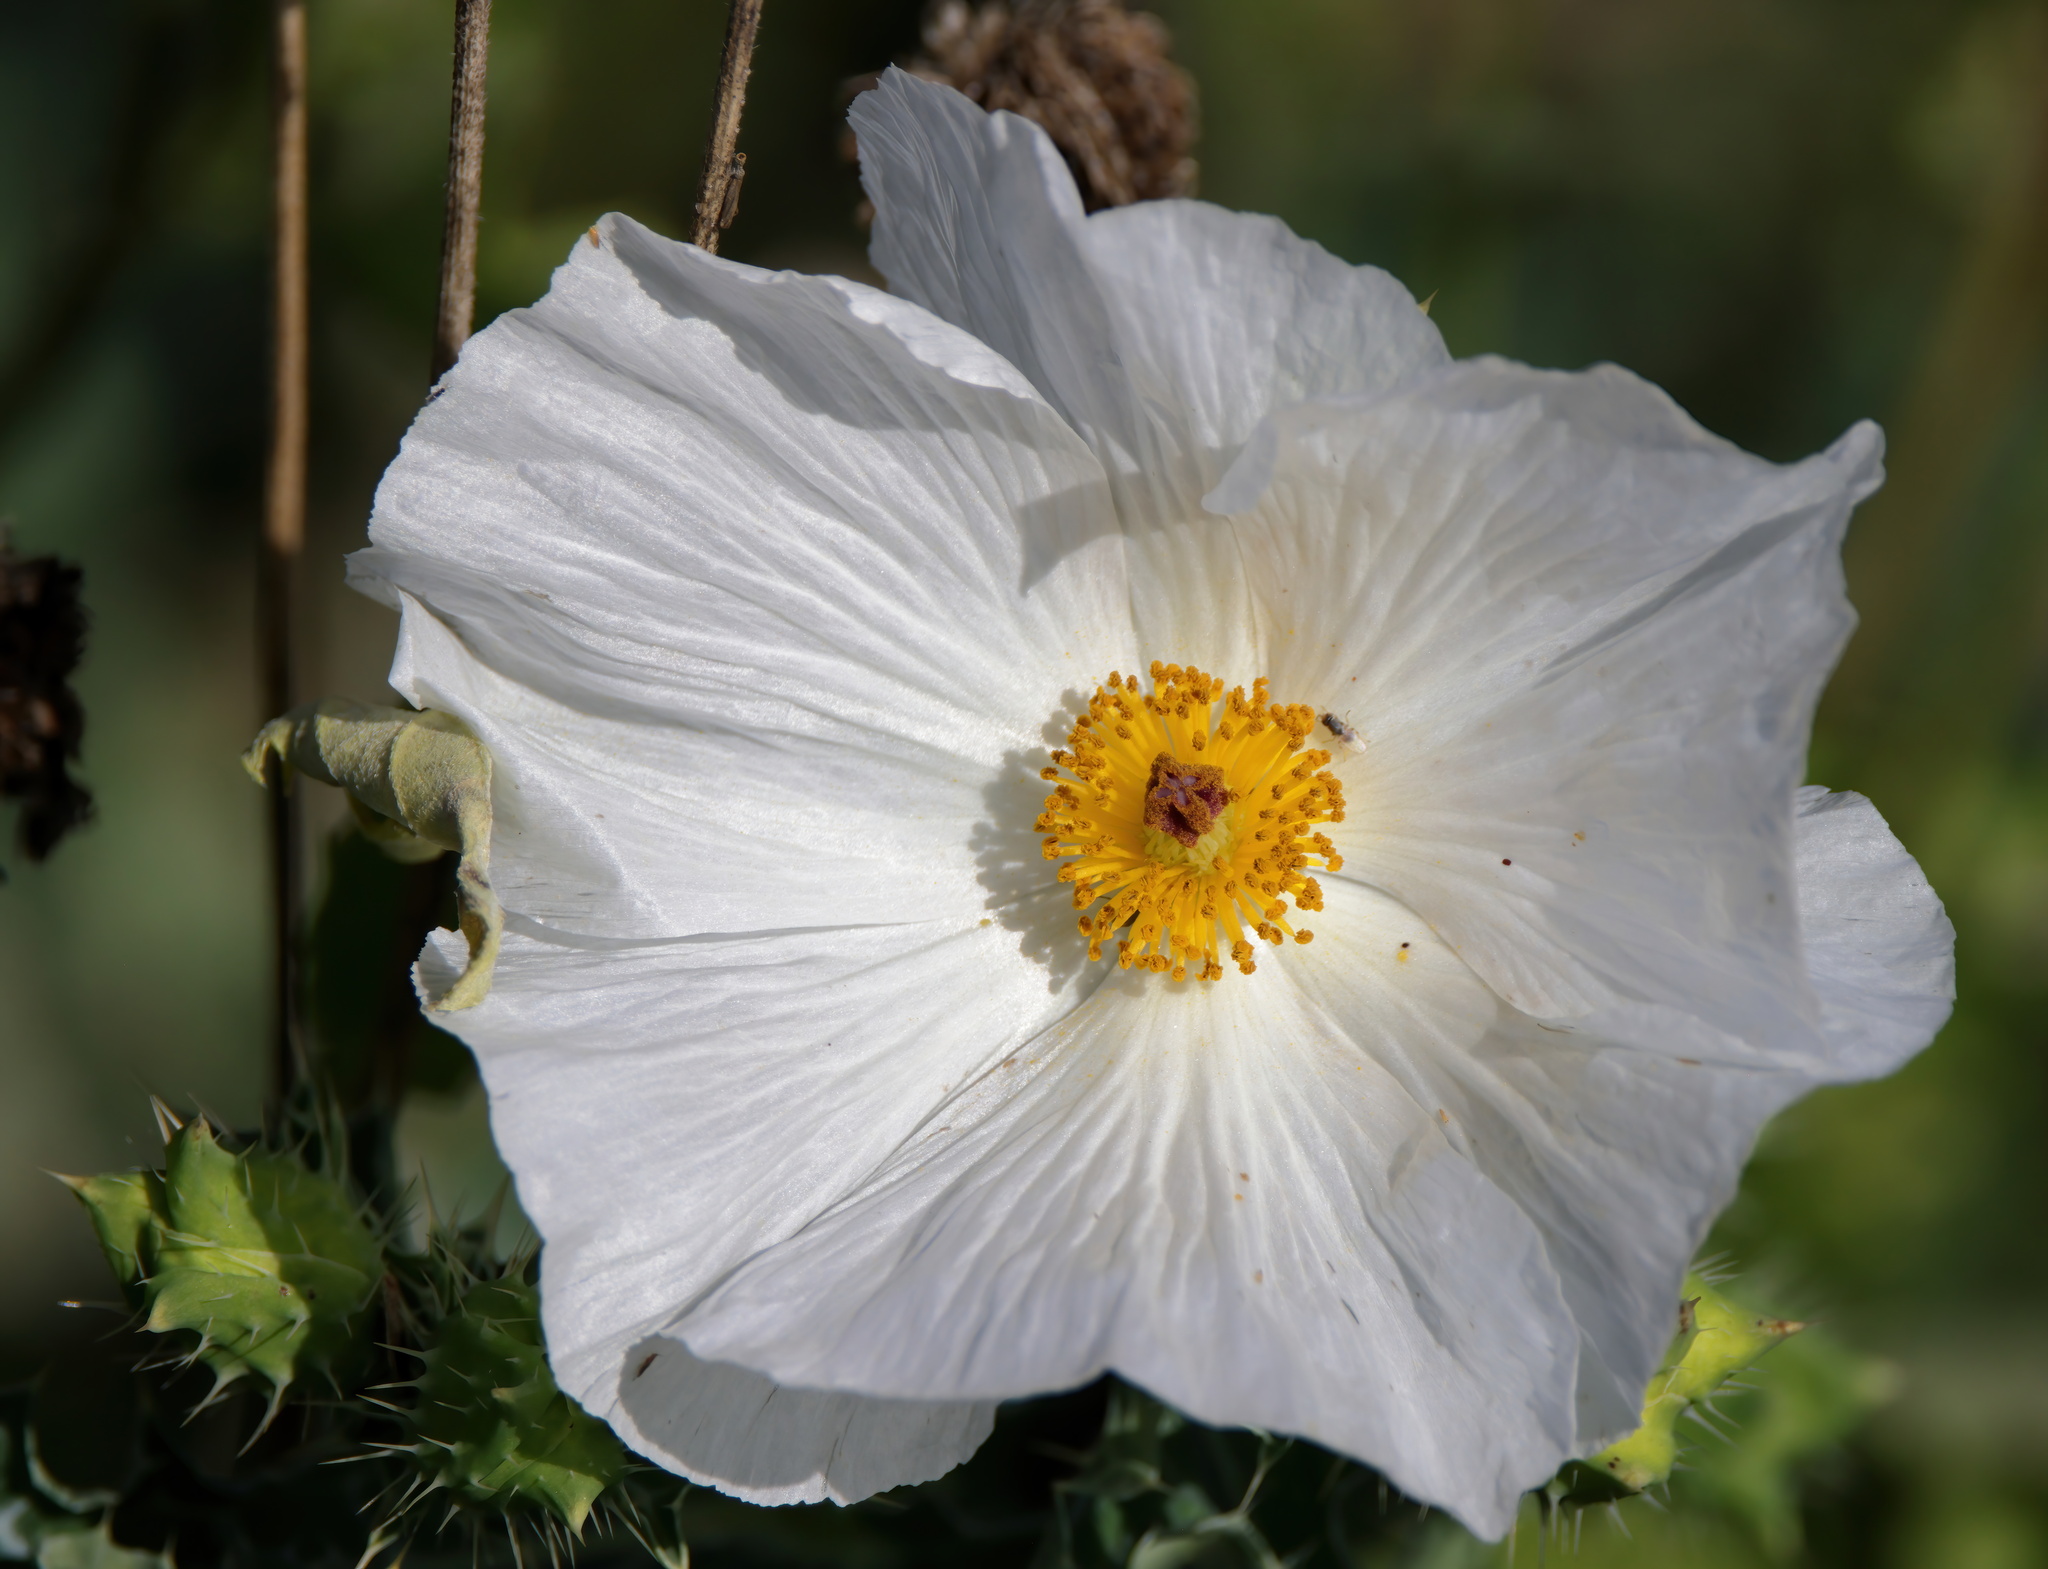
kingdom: Plantae
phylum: Tracheophyta
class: Magnoliopsida
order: Ranunculales
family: Papaveraceae
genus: Argemone
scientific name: Argemone albiflora
